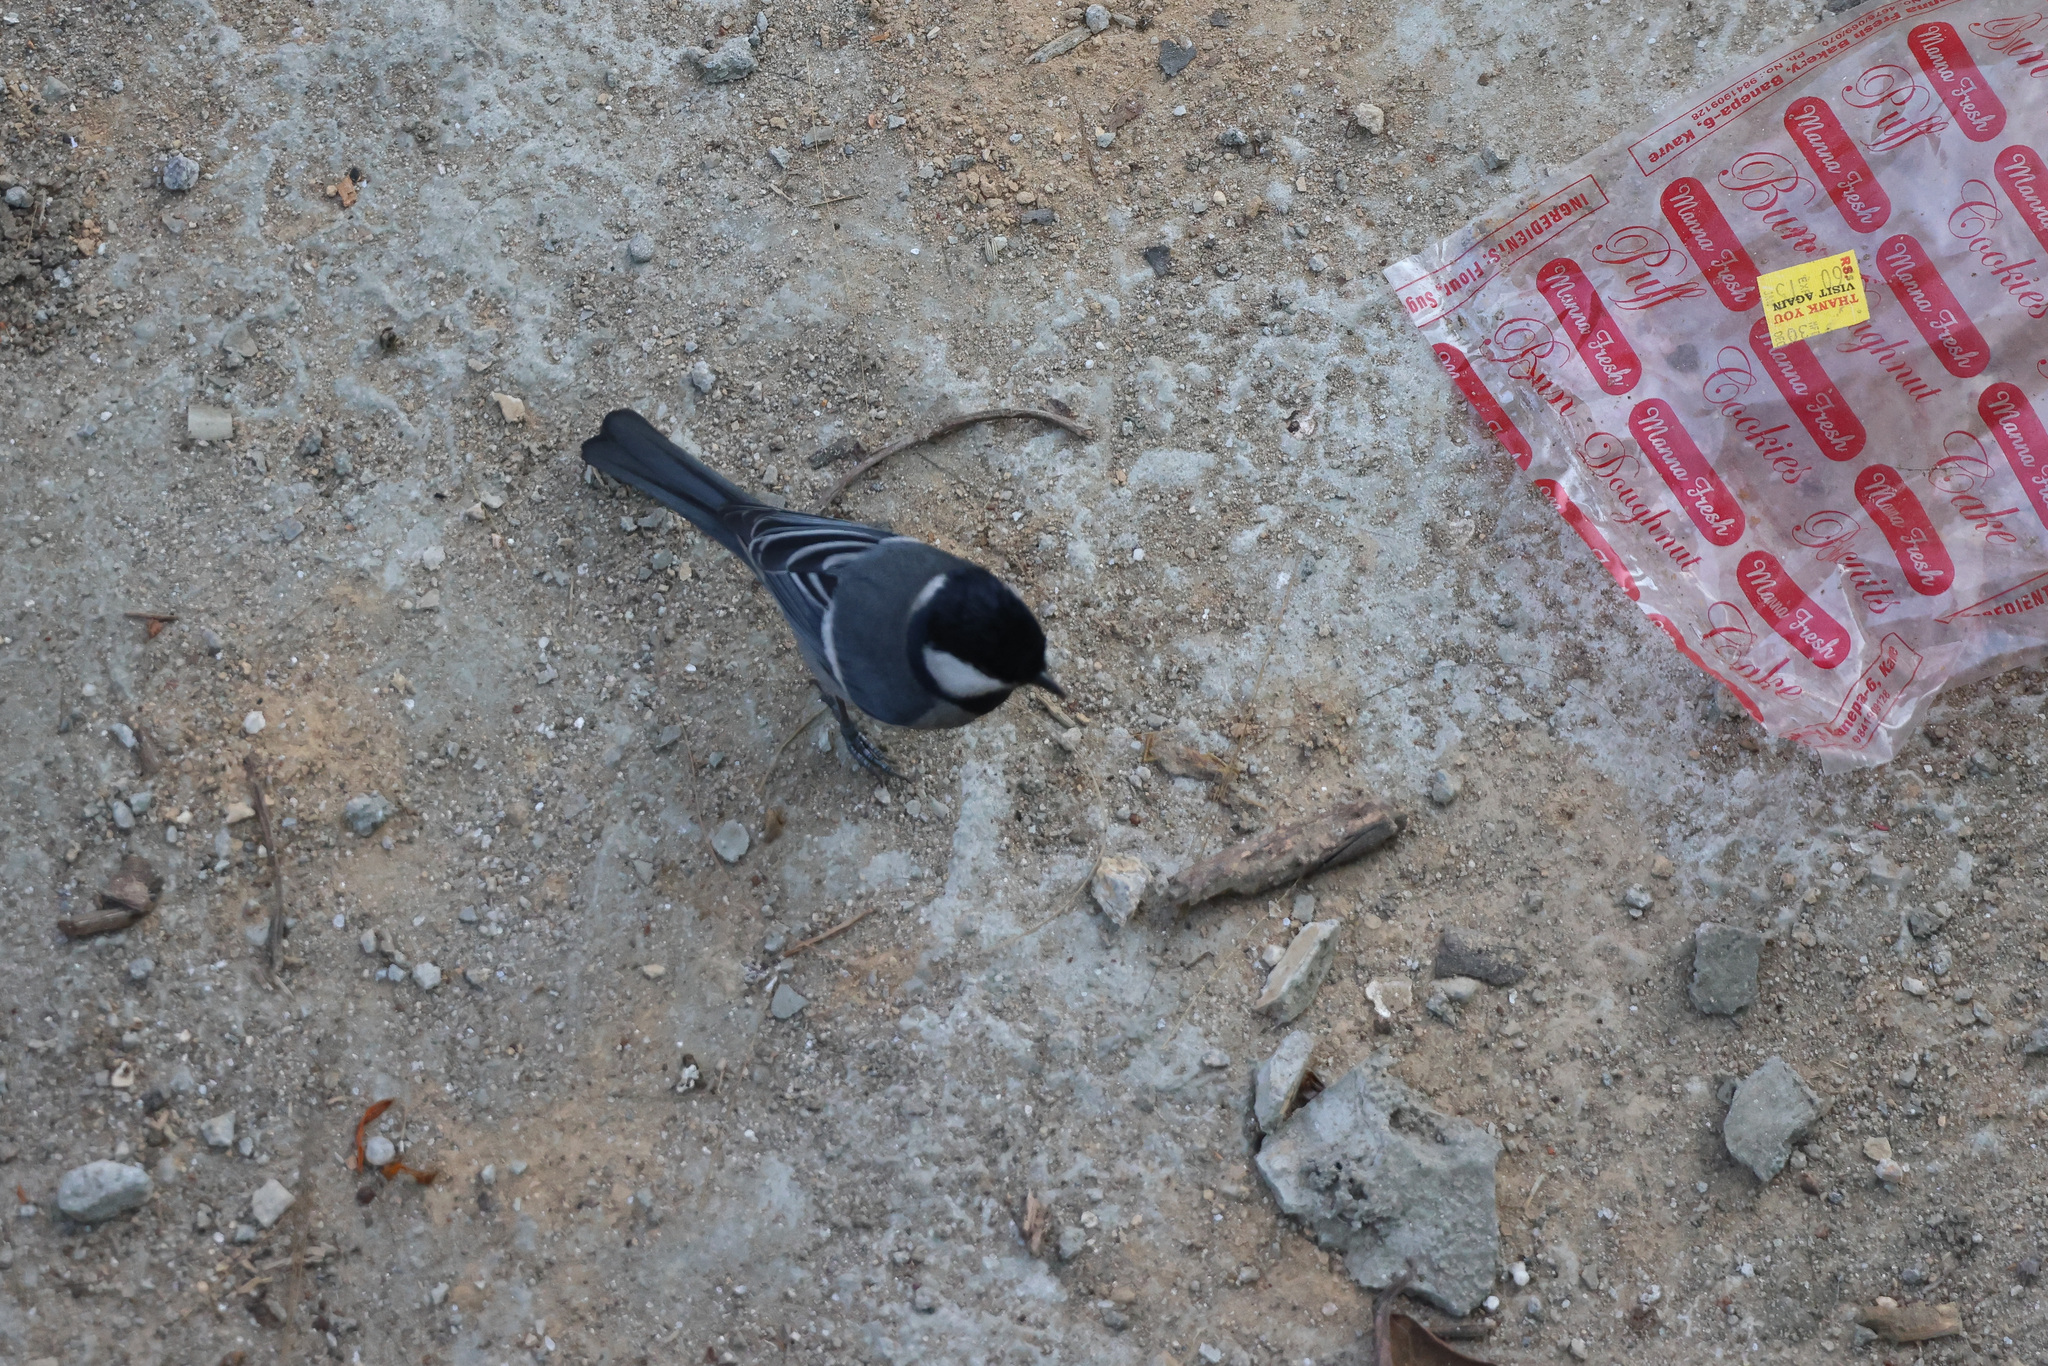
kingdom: Animalia
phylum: Chordata
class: Aves
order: Passeriformes
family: Paridae
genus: Parus
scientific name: Parus cinereus
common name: Cinereous tit
